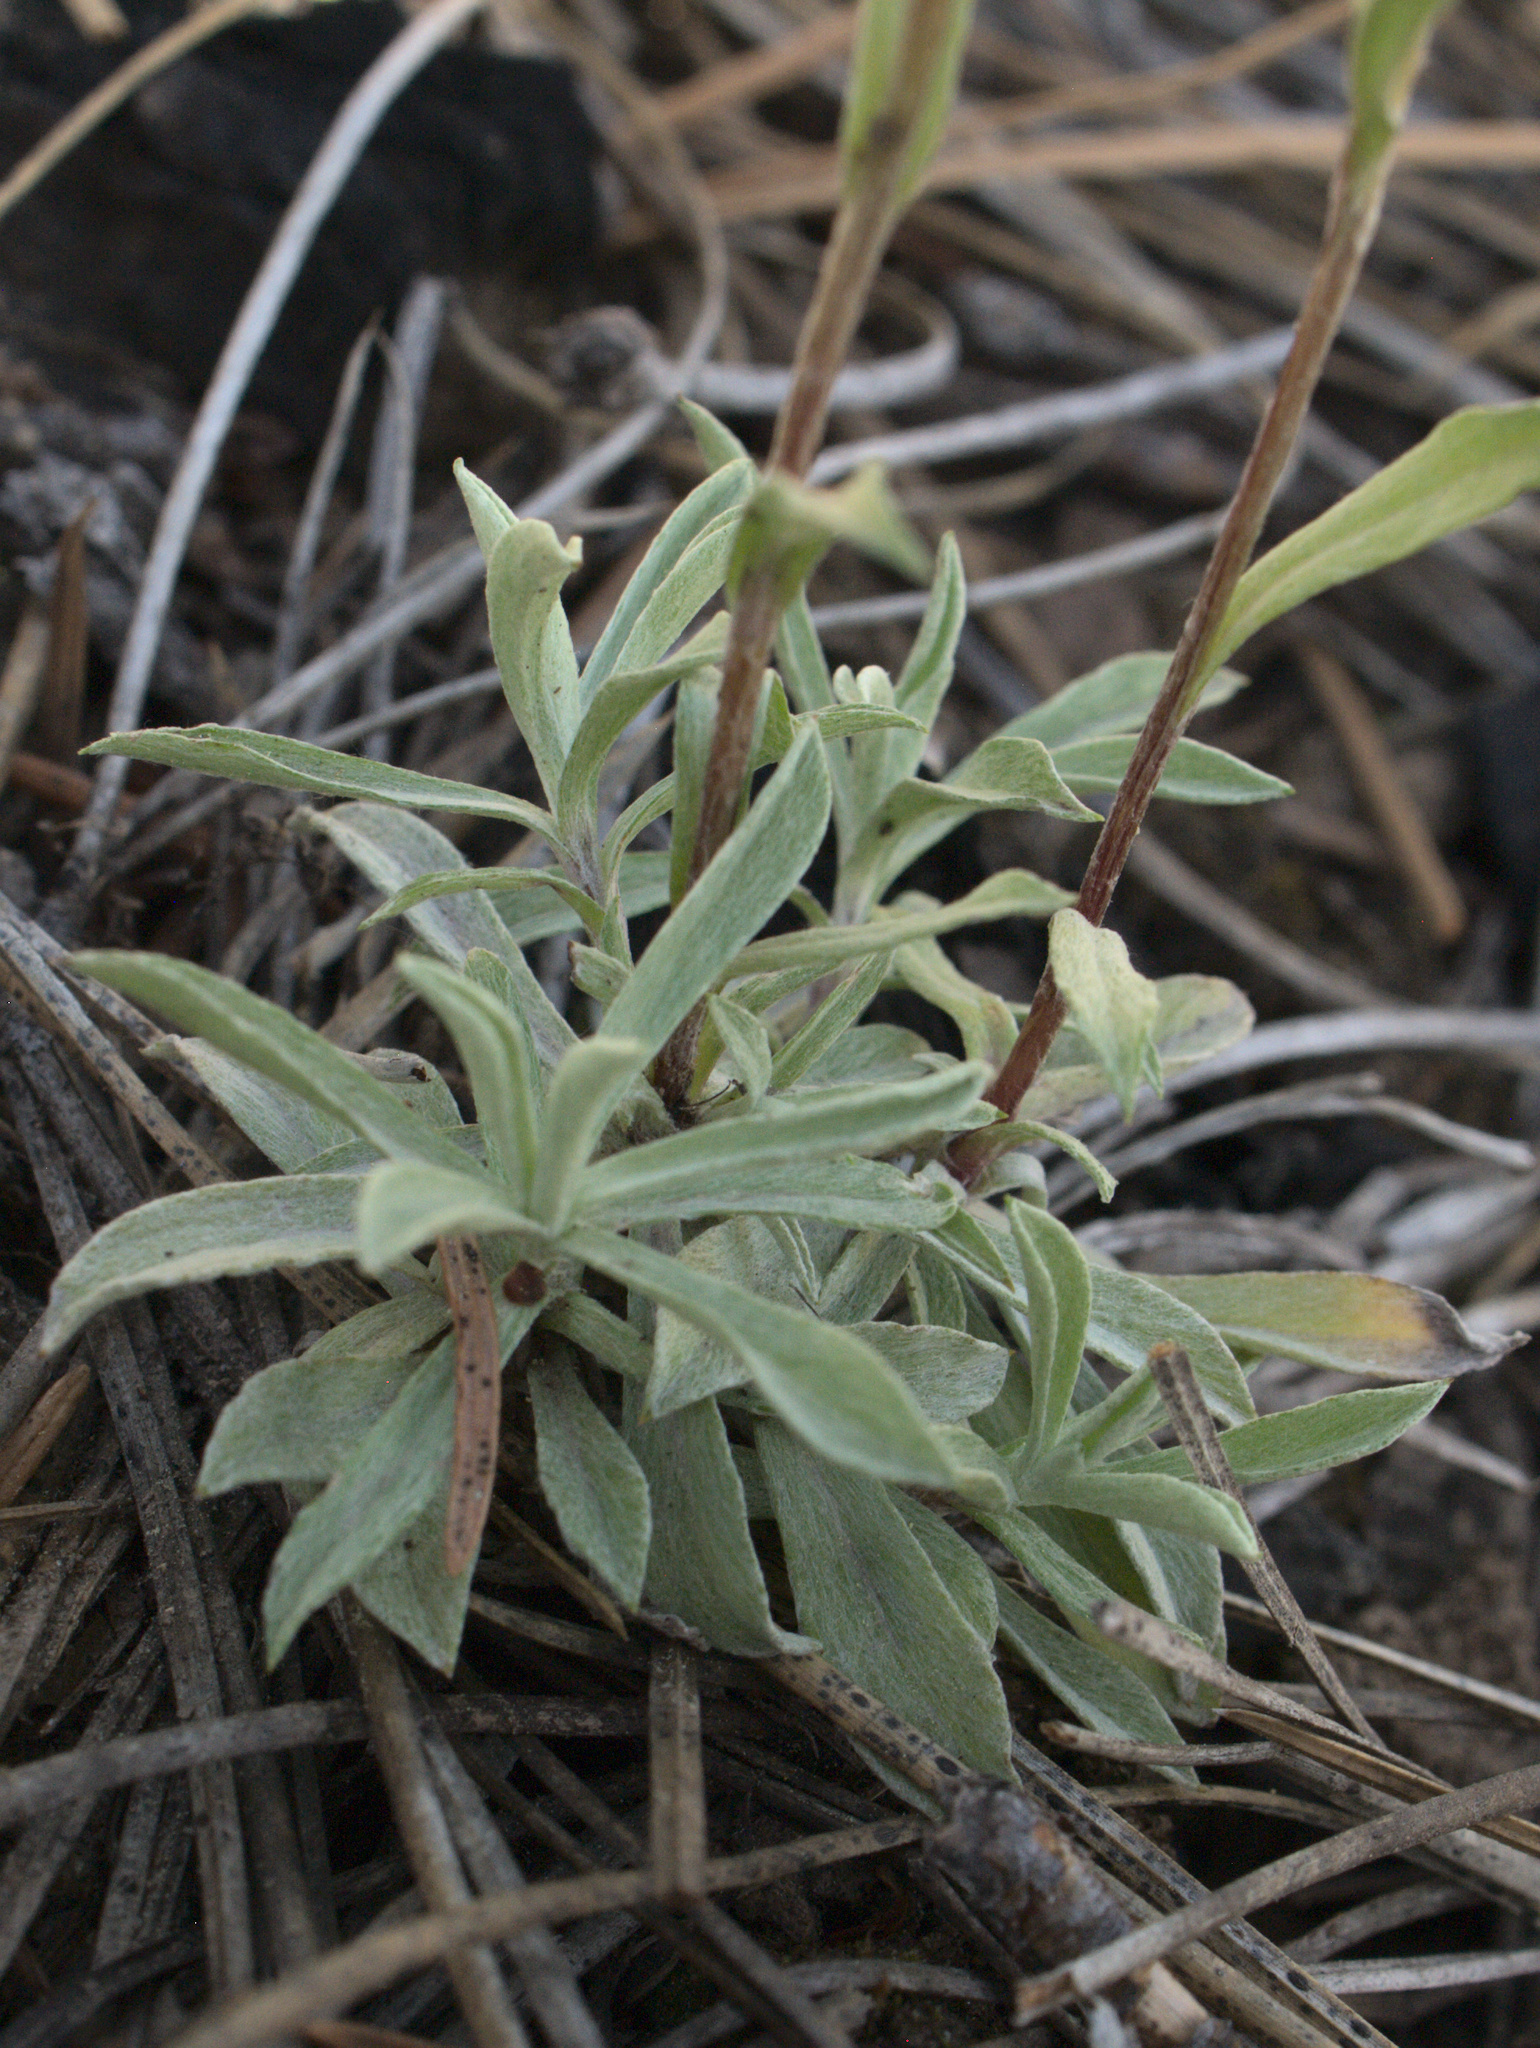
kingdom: Plantae
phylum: Tracheophyta
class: Magnoliopsida
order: Asterales
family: Asteraceae
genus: Antennaria
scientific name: Antennaria rosea
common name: Rosy pussytoes
